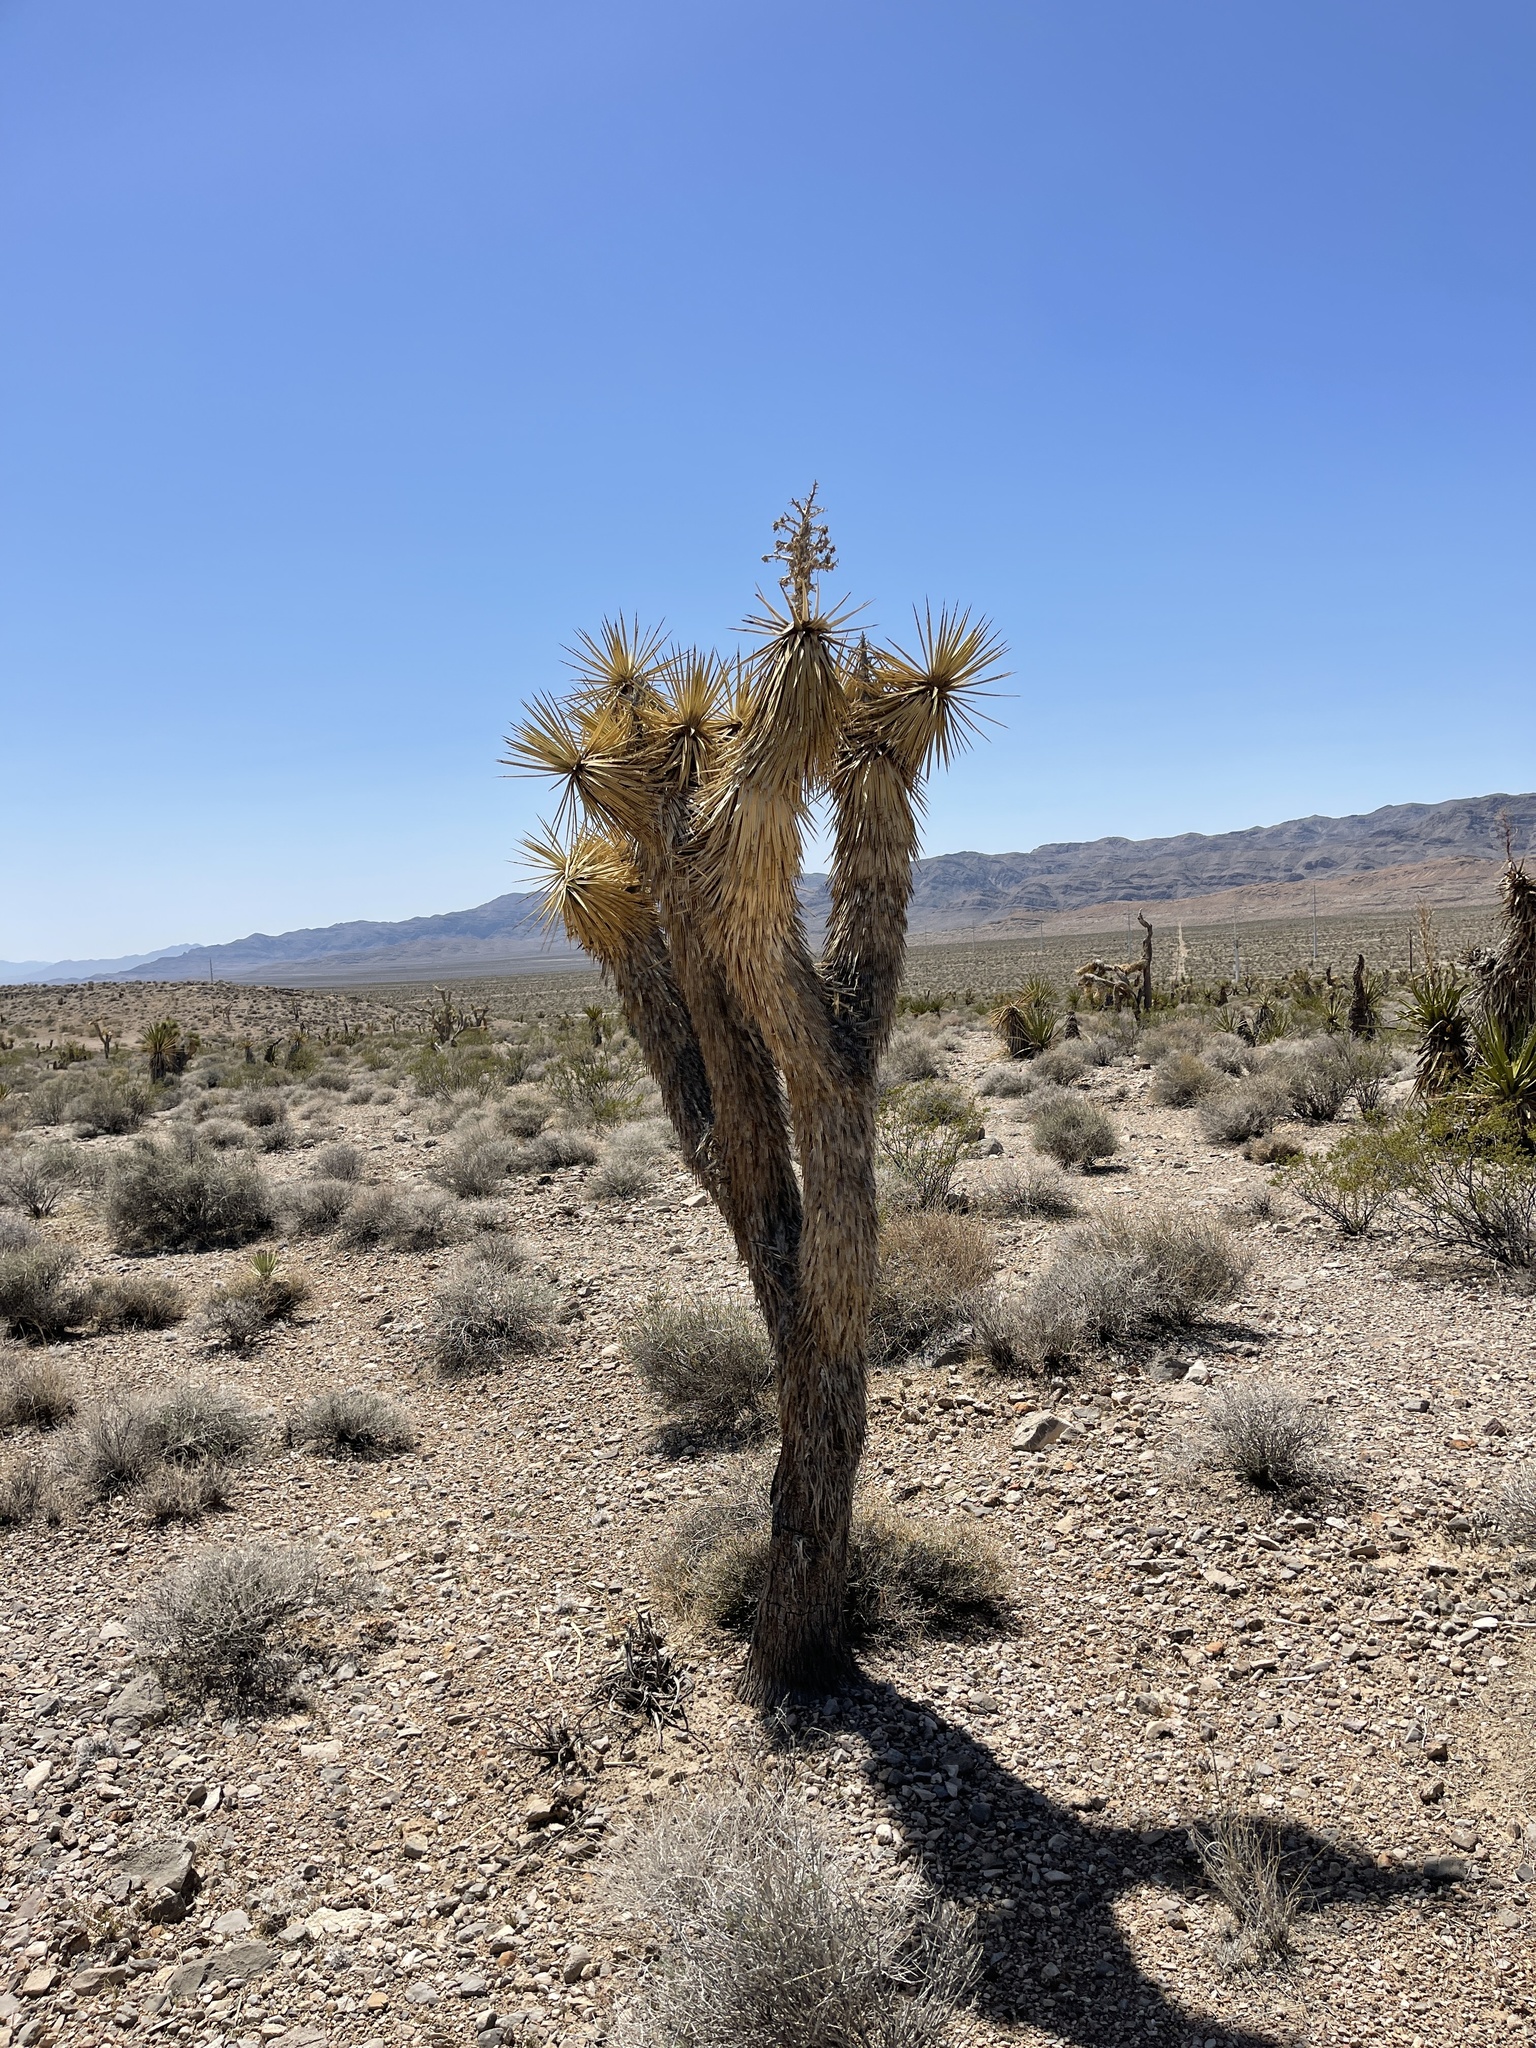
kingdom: Plantae
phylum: Tracheophyta
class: Liliopsida
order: Asparagales
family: Asparagaceae
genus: Yucca
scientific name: Yucca brevifolia
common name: Joshua tree
